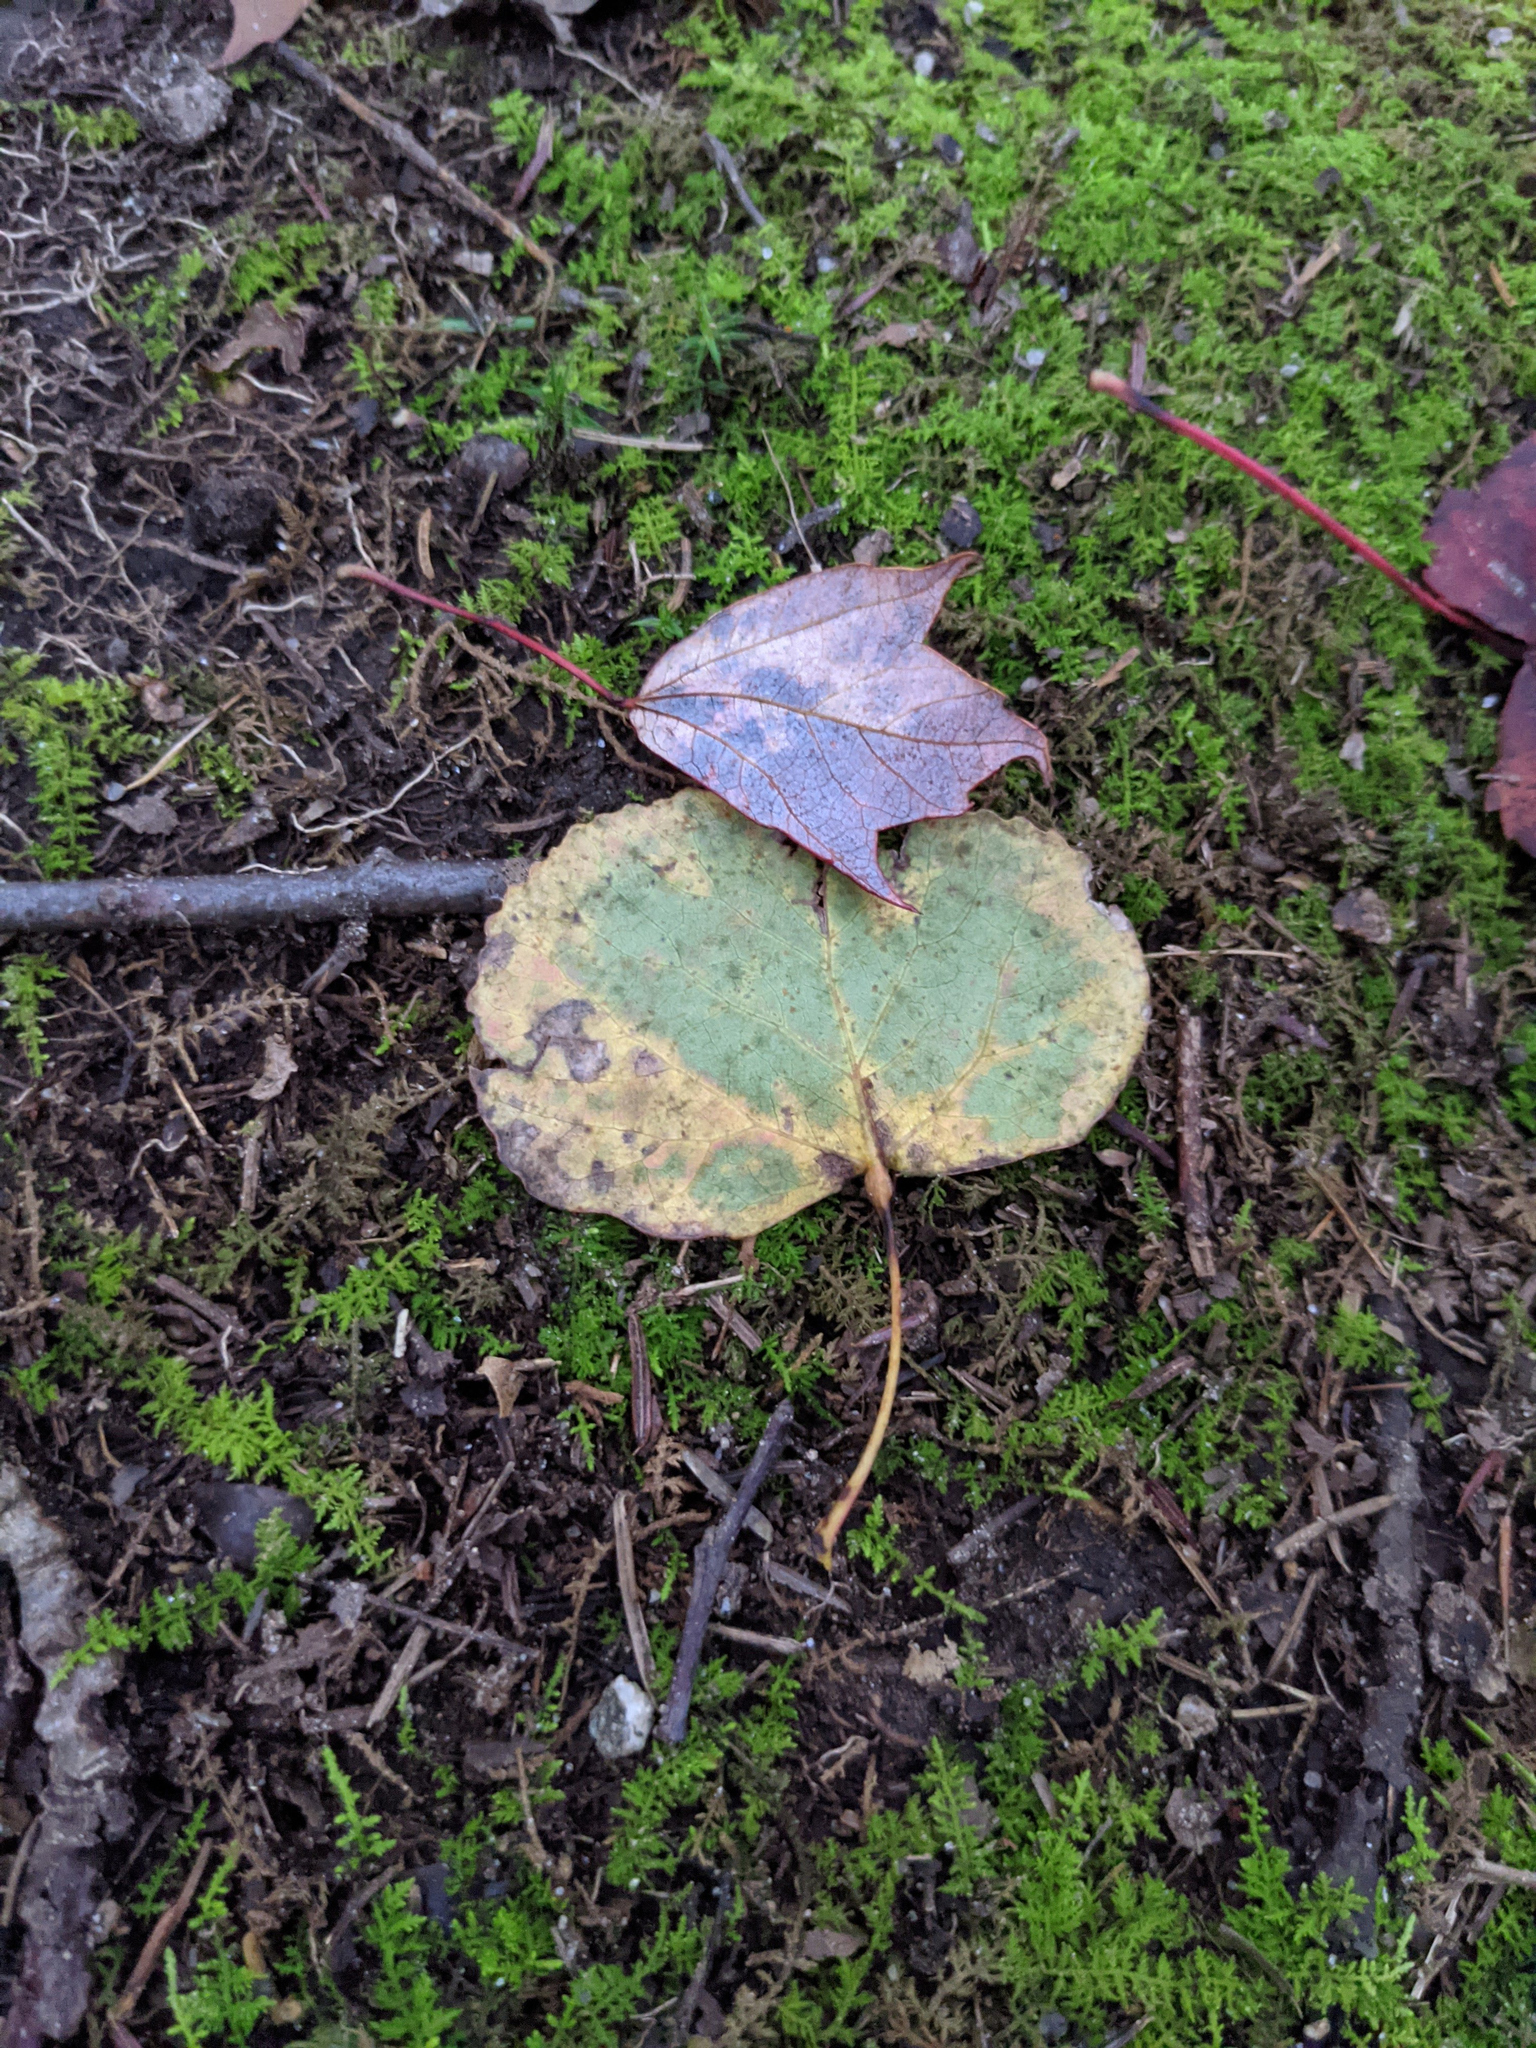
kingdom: Plantae
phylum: Tracheophyta
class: Magnoliopsida
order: Malpighiales
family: Salicaceae
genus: Populus
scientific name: Populus tremuloides
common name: Quaking aspen
